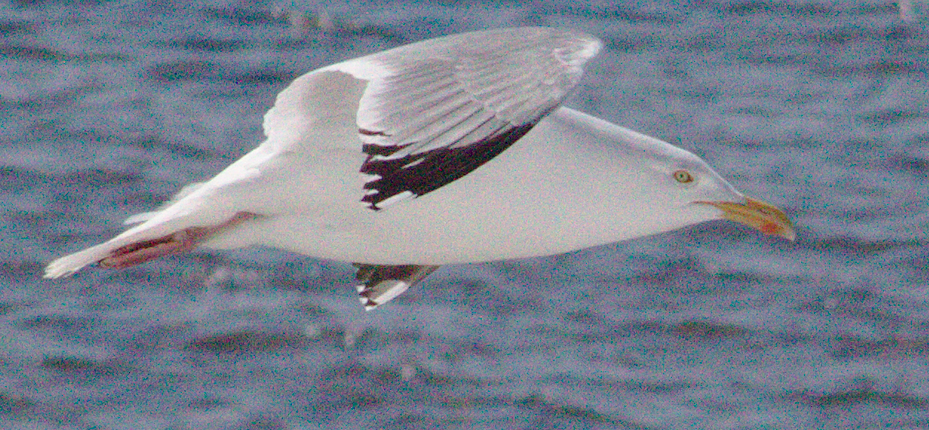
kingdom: Animalia
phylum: Chordata
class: Aves
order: Charadriiformes
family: Laridae
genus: Larus
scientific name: Larus argentatus
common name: Herring gull
